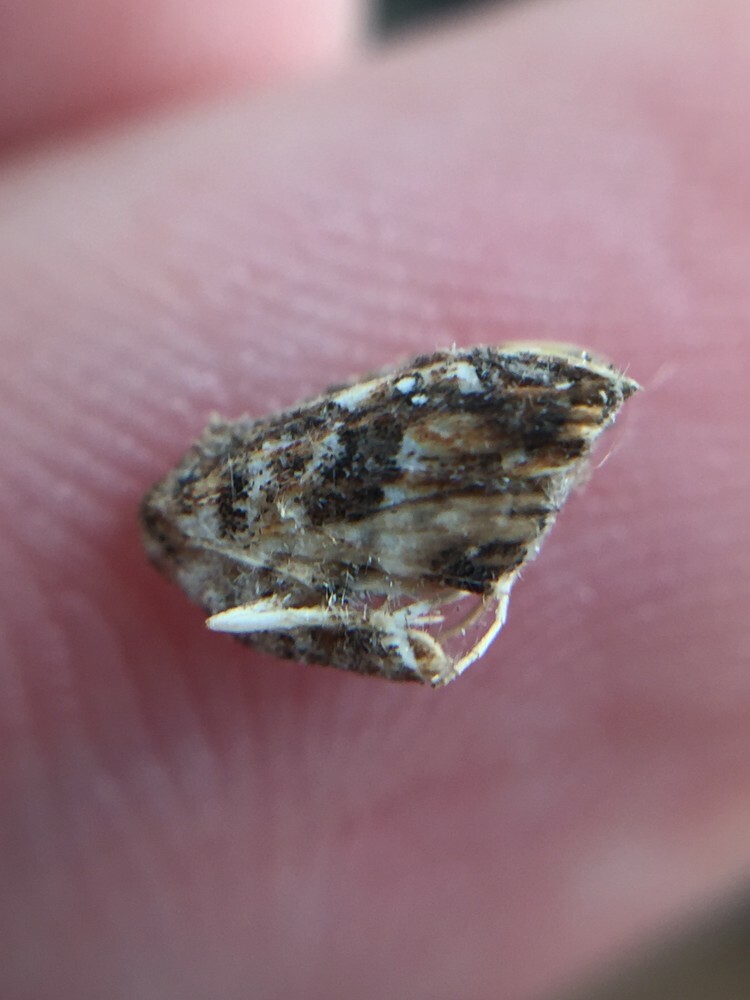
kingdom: Animalia
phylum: Arthropoda
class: Insecta
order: Lepidoptera
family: Pyralidae
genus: Musotima
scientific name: Musotima nitidalis
